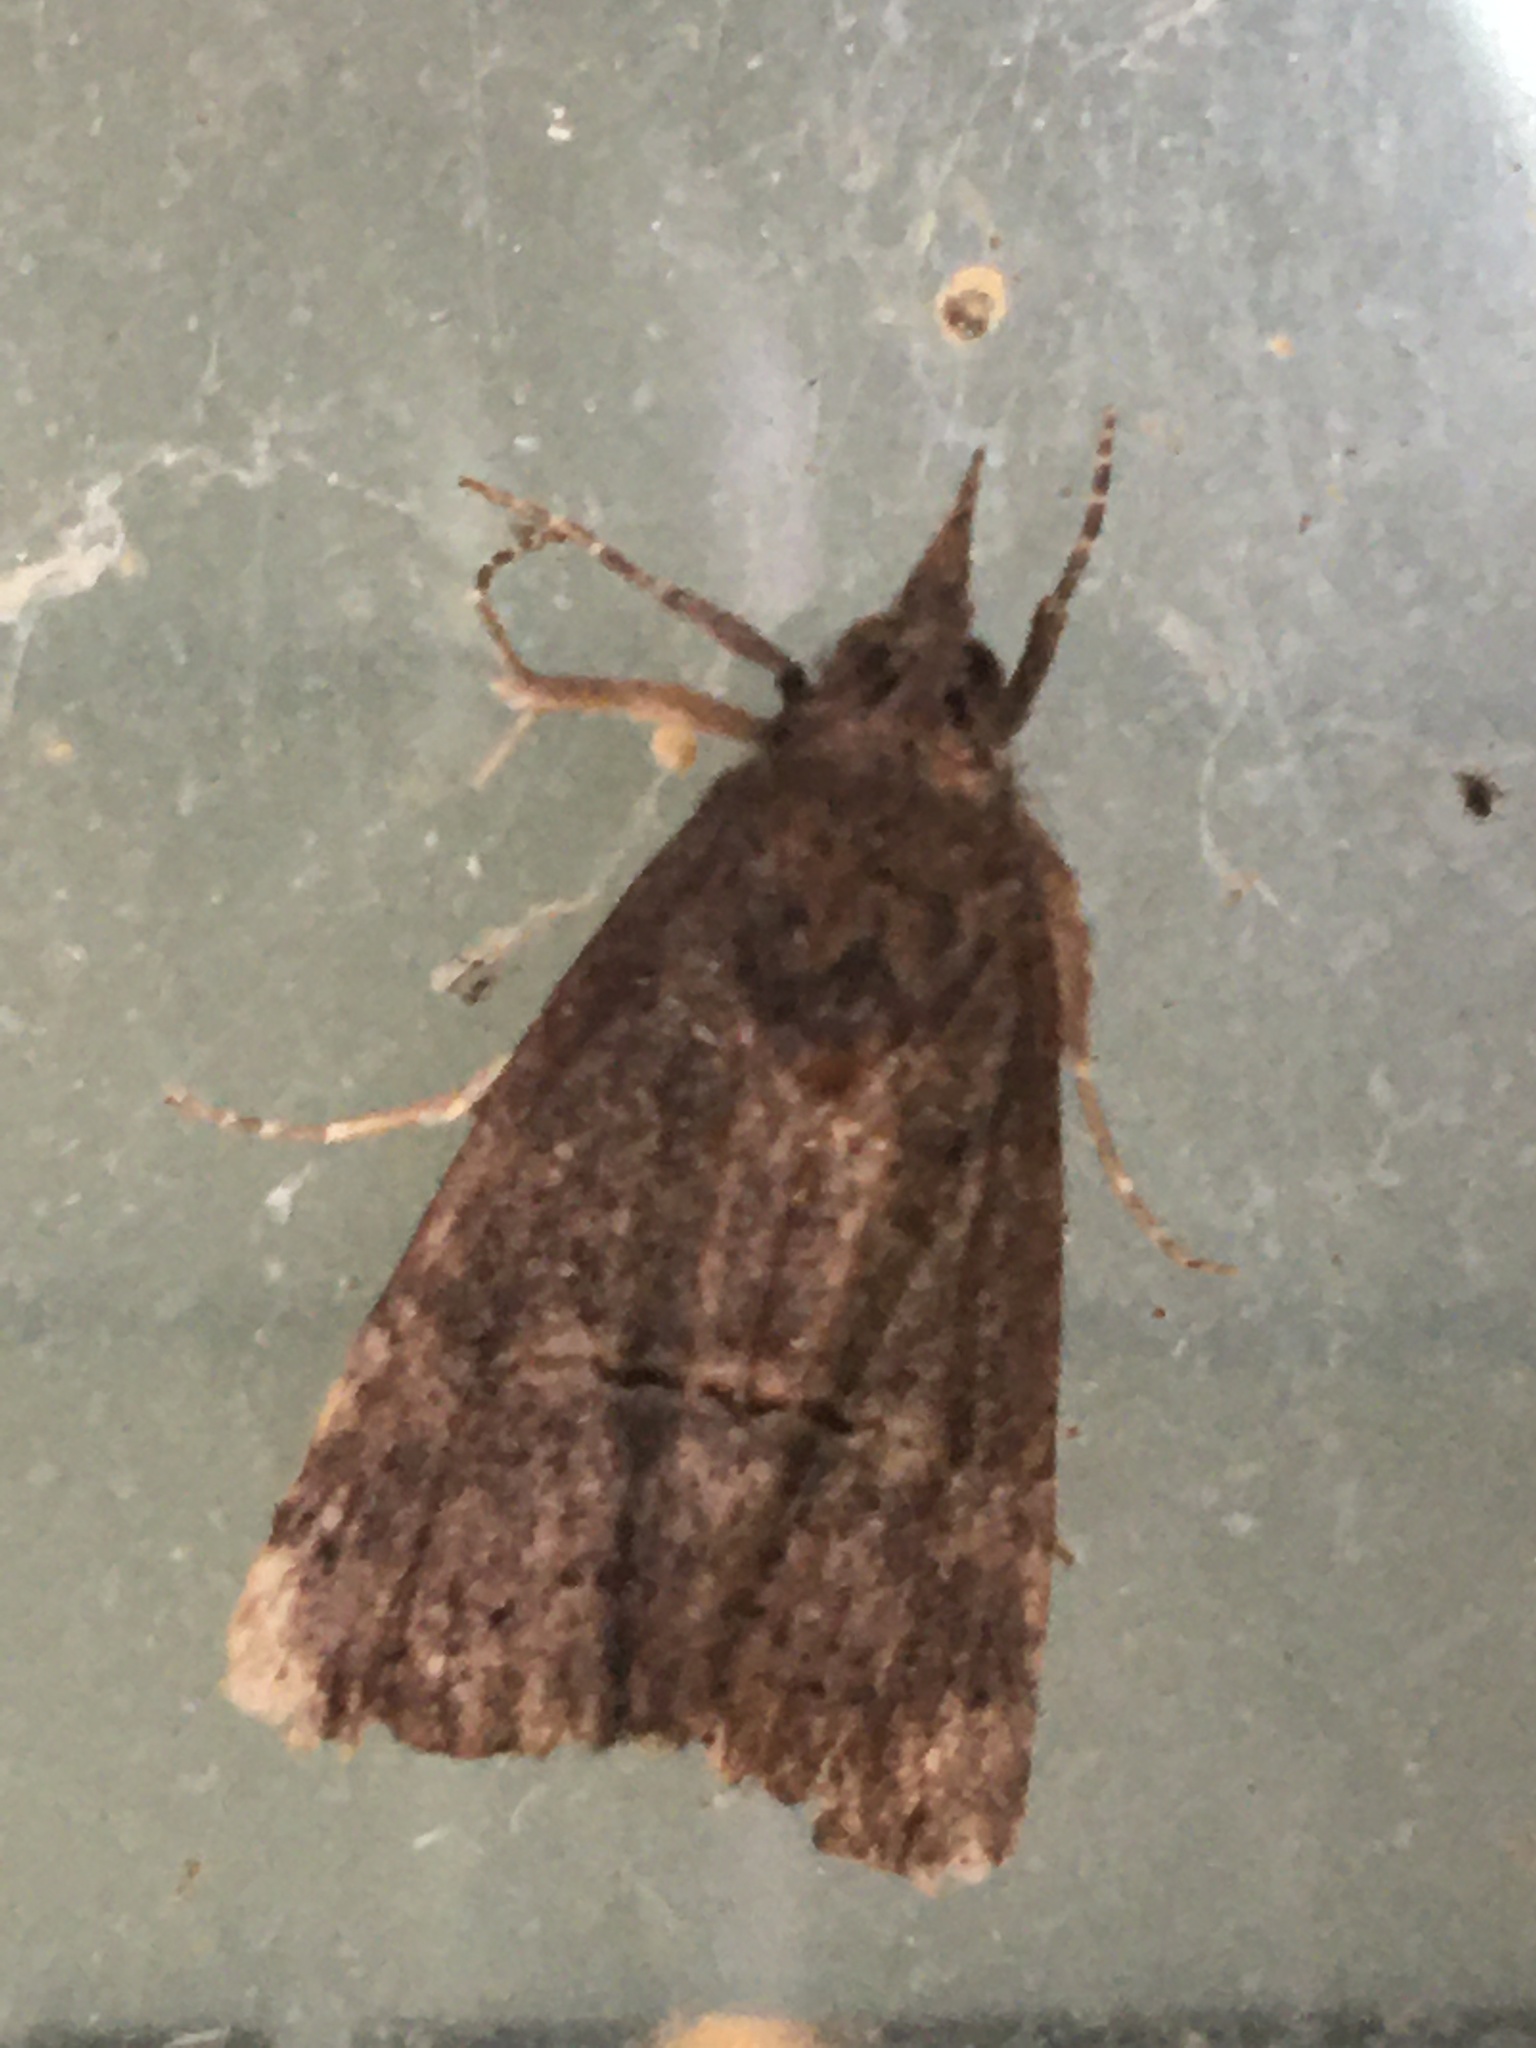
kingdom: Animalia
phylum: Arthropoda
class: Insecta
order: Lepidoptera
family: Erebidae
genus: Hypena
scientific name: Hypena scabra
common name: Green cloverworm
